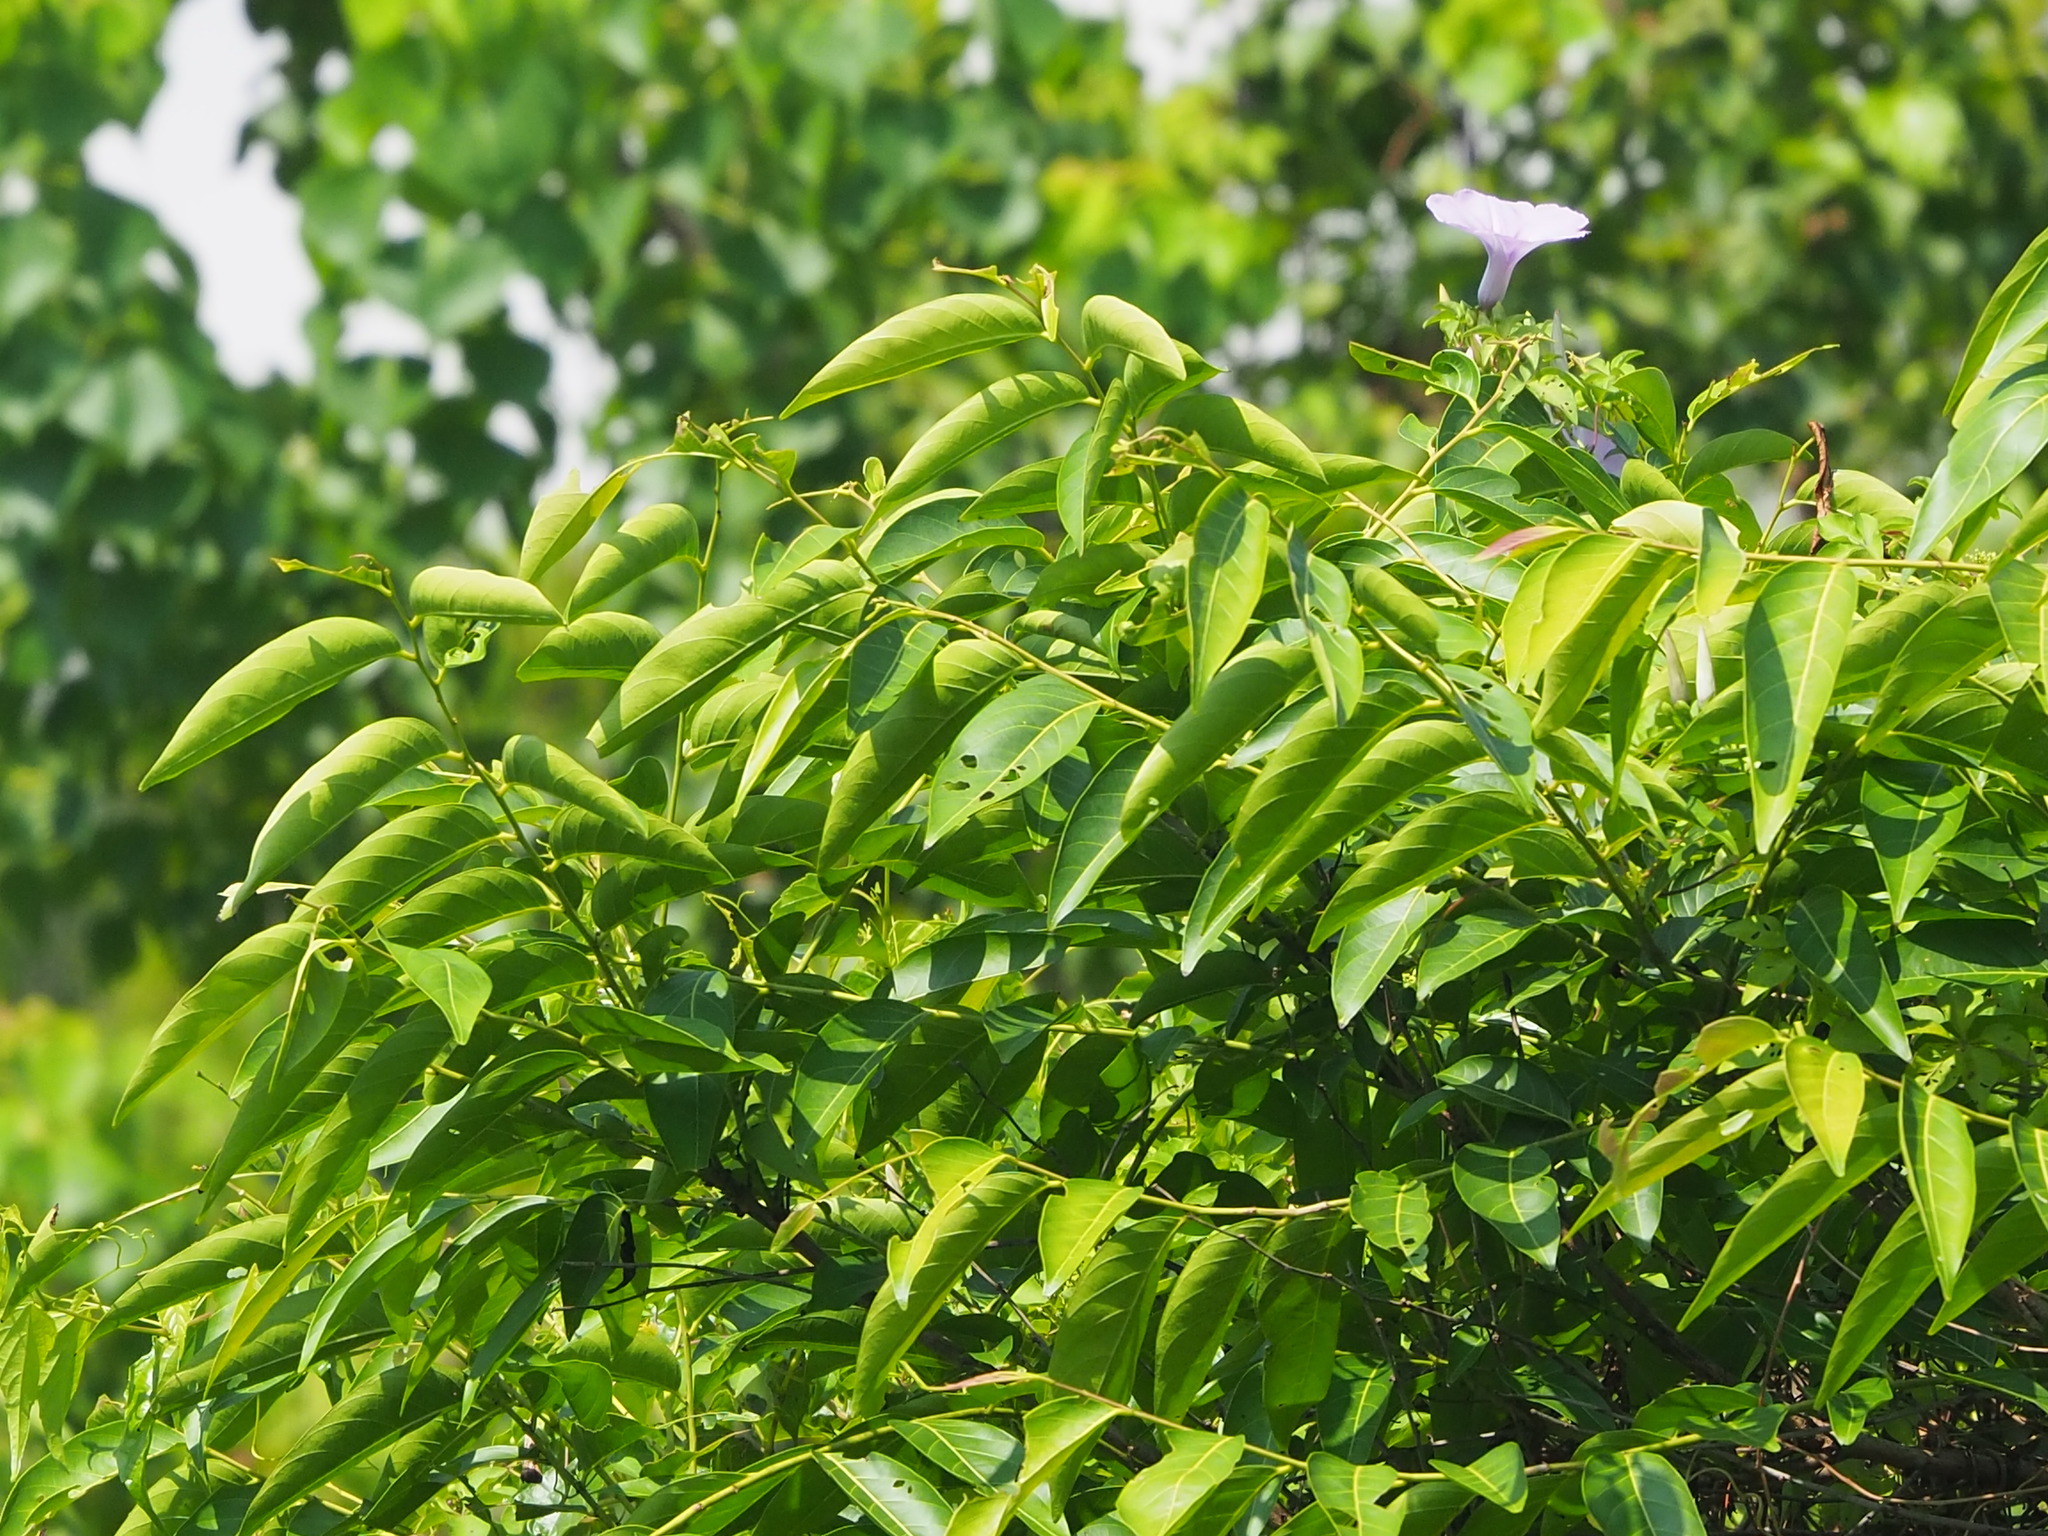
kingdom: Plantae
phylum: Tracheophyta
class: Magnoliopsida
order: Malpighiales
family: Phyllanthaceae
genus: Glochidion
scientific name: Glochidion lanceolatum
